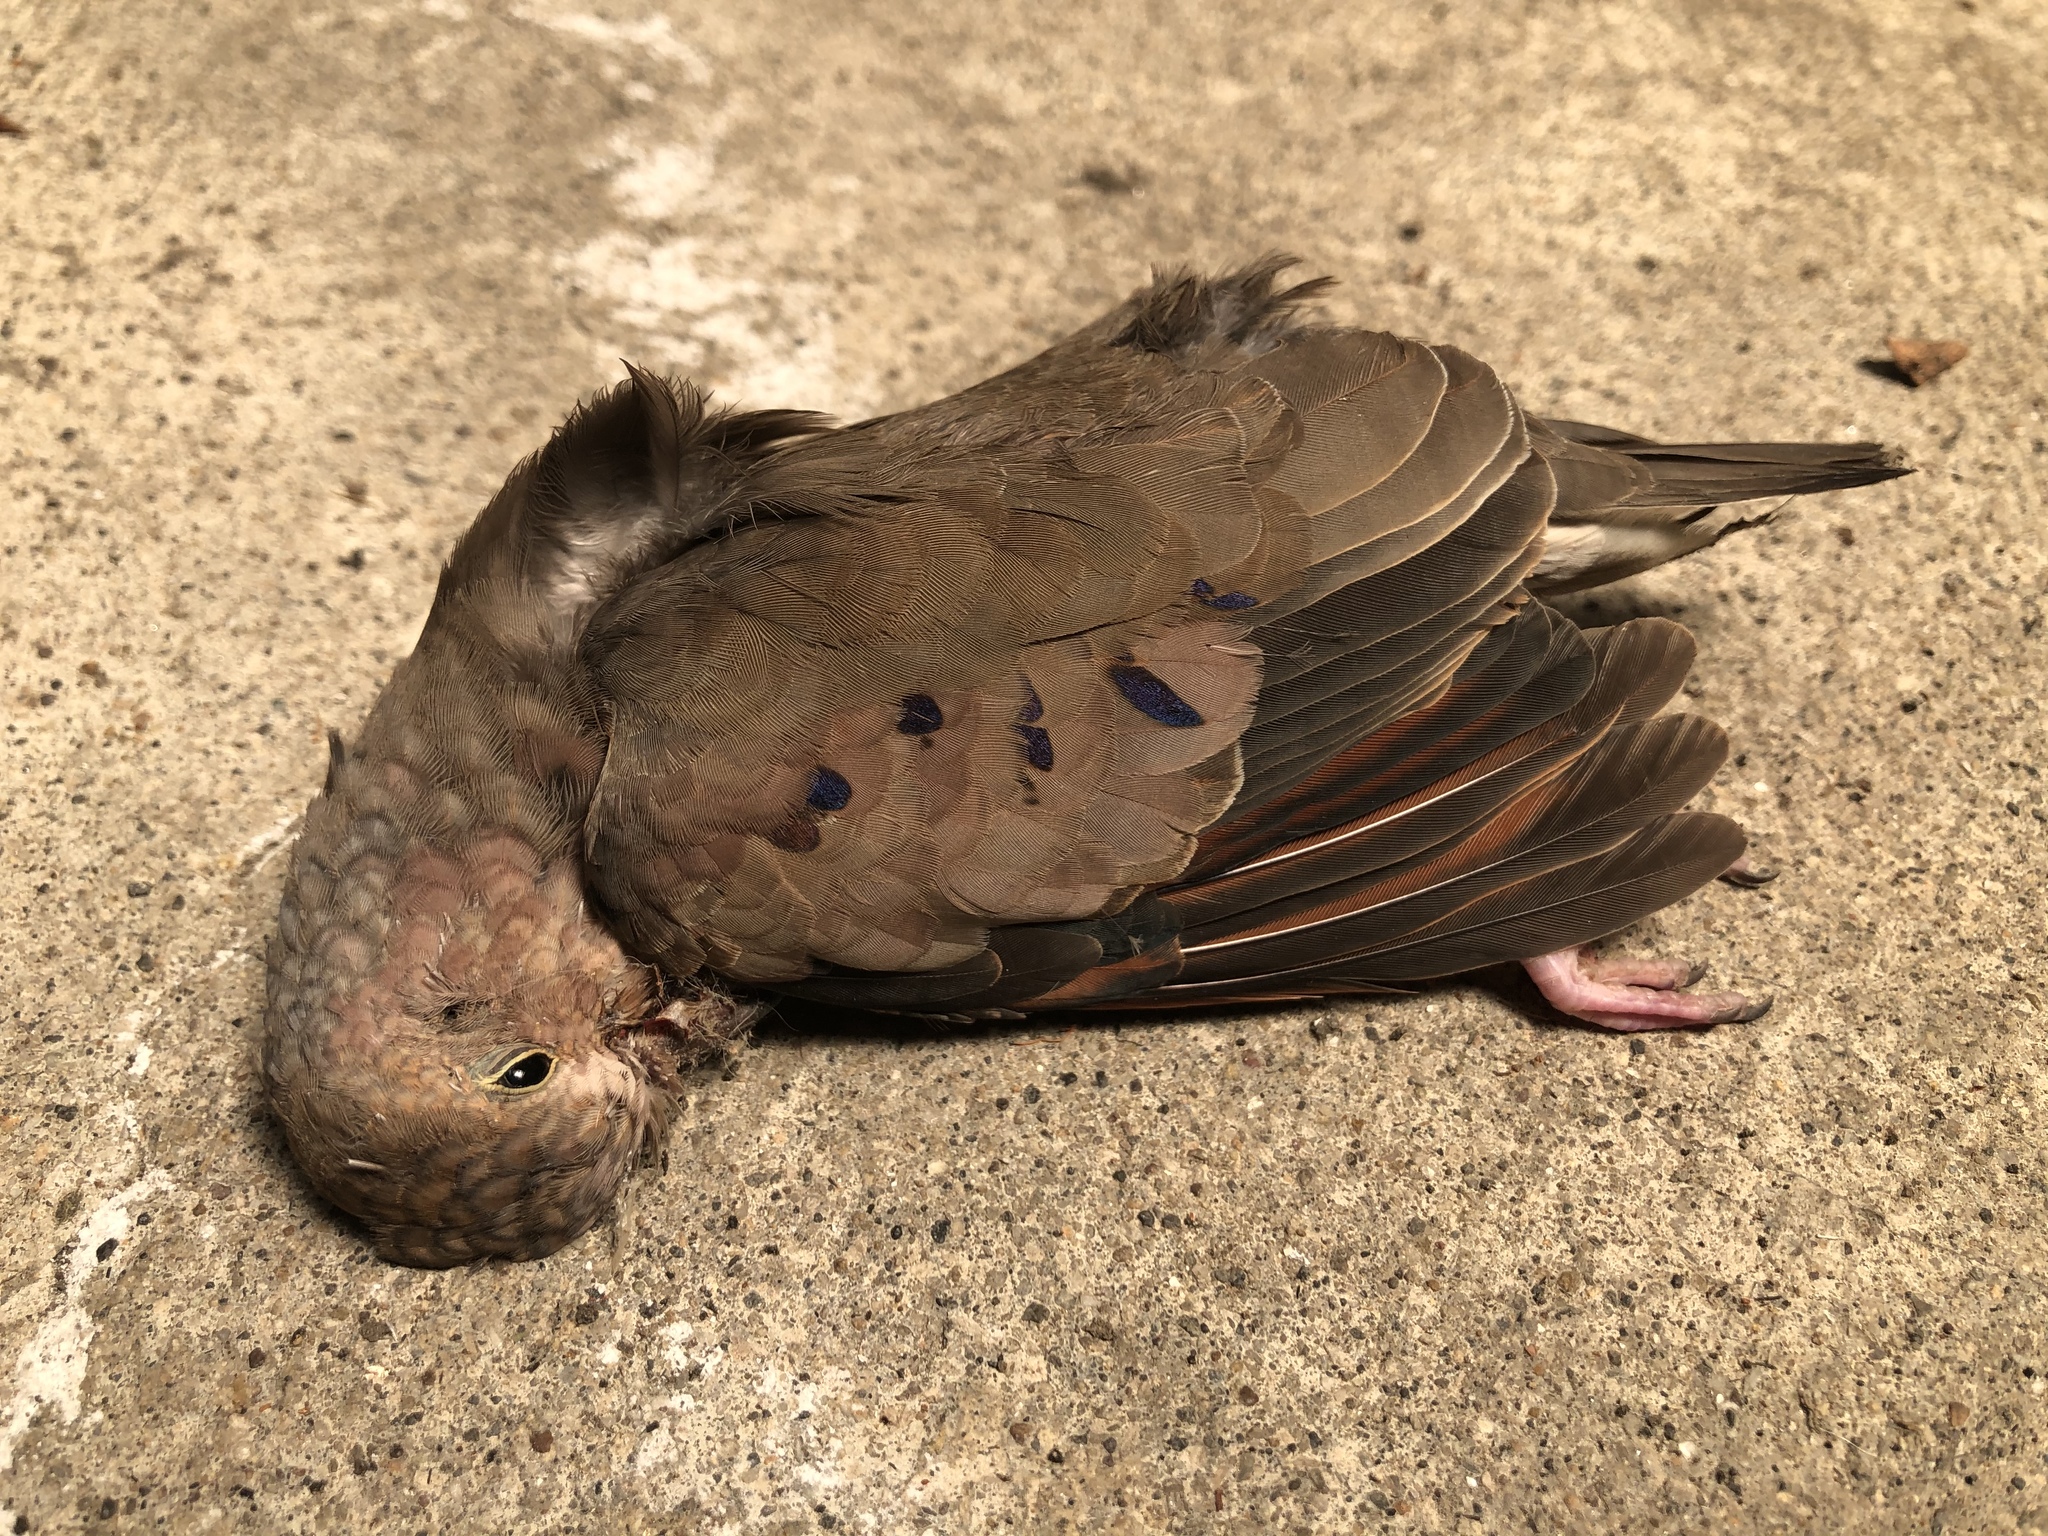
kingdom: Animalia
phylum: Chordata
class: Aves
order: Columbiformes
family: Columbidae
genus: Columbina
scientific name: Columbina passerina
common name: Common ground-dove
